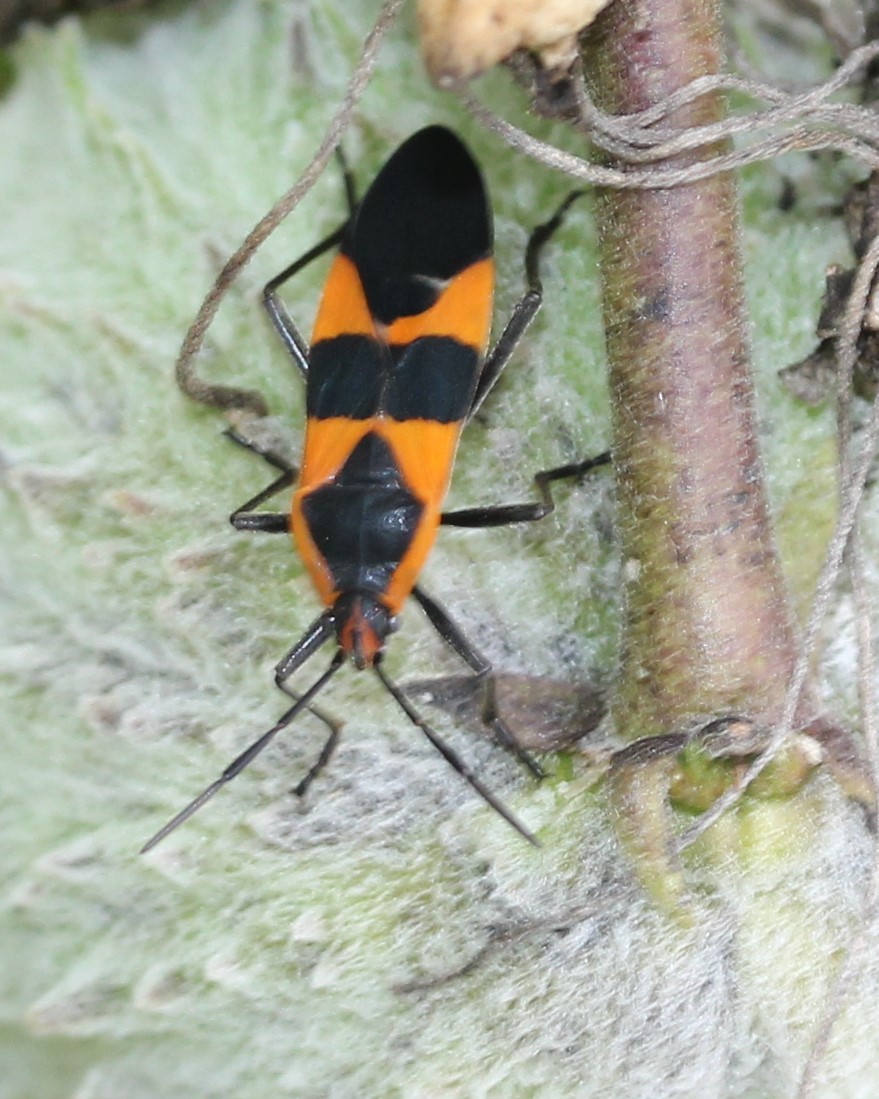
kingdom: Animalia
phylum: Arthropoda
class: Insecta
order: Hemiptera
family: Lygaeidae
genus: Oncopeltus
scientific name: Oncopeltus fasciatus
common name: Large milkweed bug
